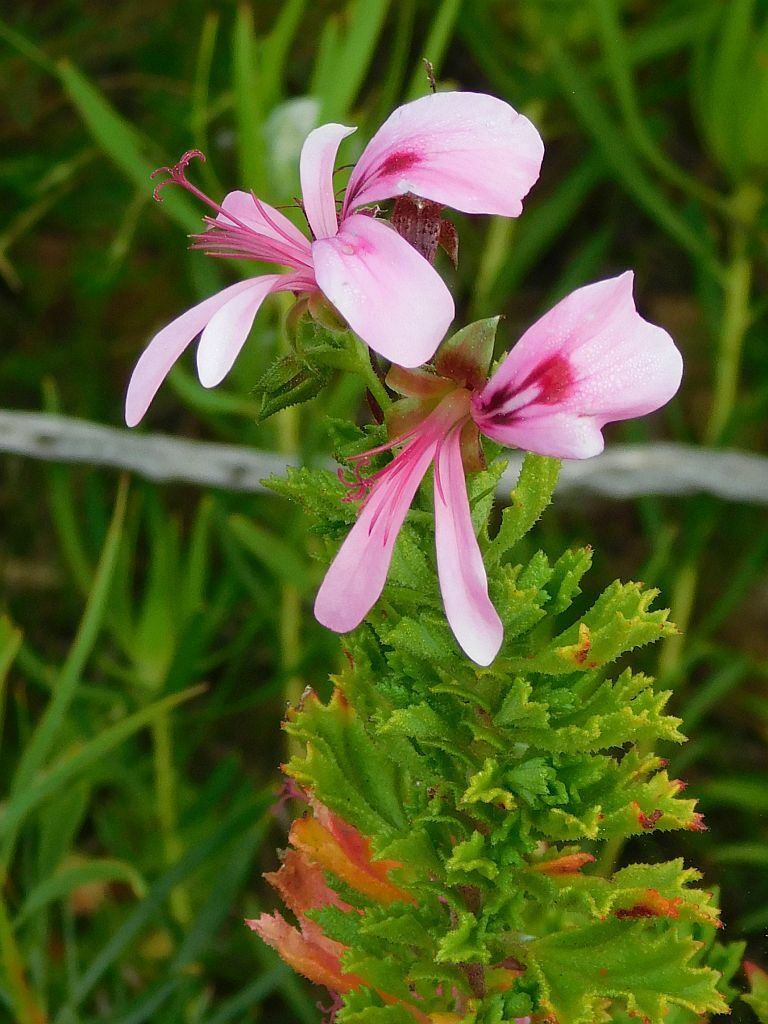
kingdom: Plantae
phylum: Tracheophyta
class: Magnoliopsida
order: Geraniales
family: Geraniaceae
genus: Pelargonium
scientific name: Pelargonium hermaniifolium
